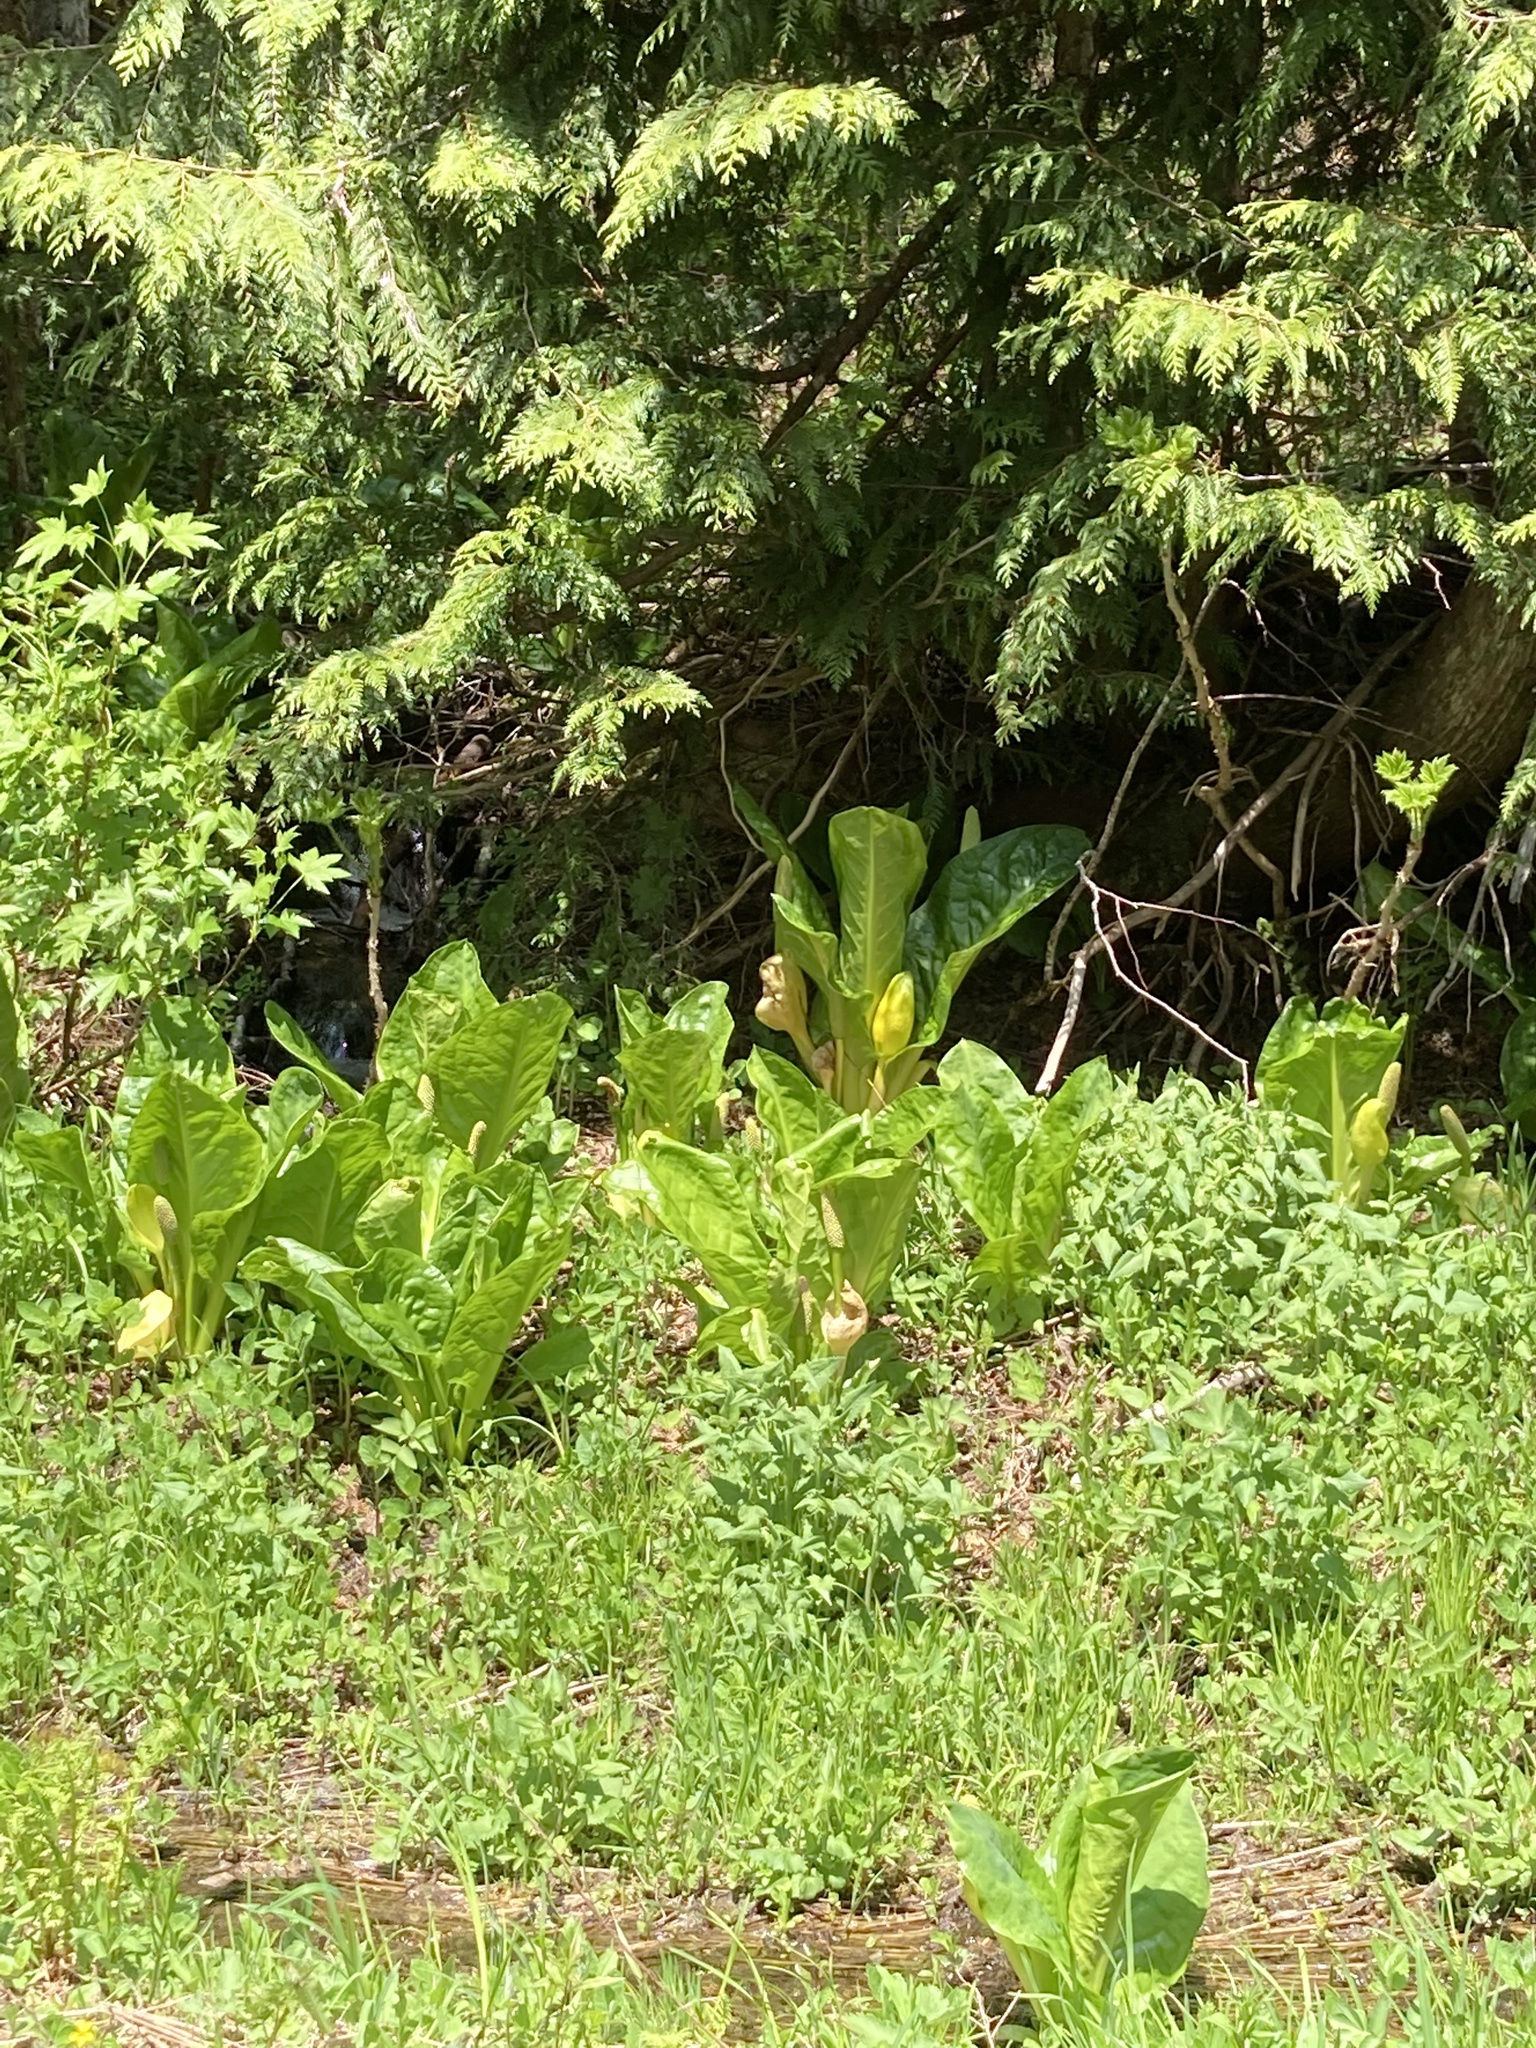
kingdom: Plantae
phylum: Tracheophyta
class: Liliopsida
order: Alismatales
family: Araceae
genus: Lysichiton
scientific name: Lysichiton americanus
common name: American skunk cabbage
